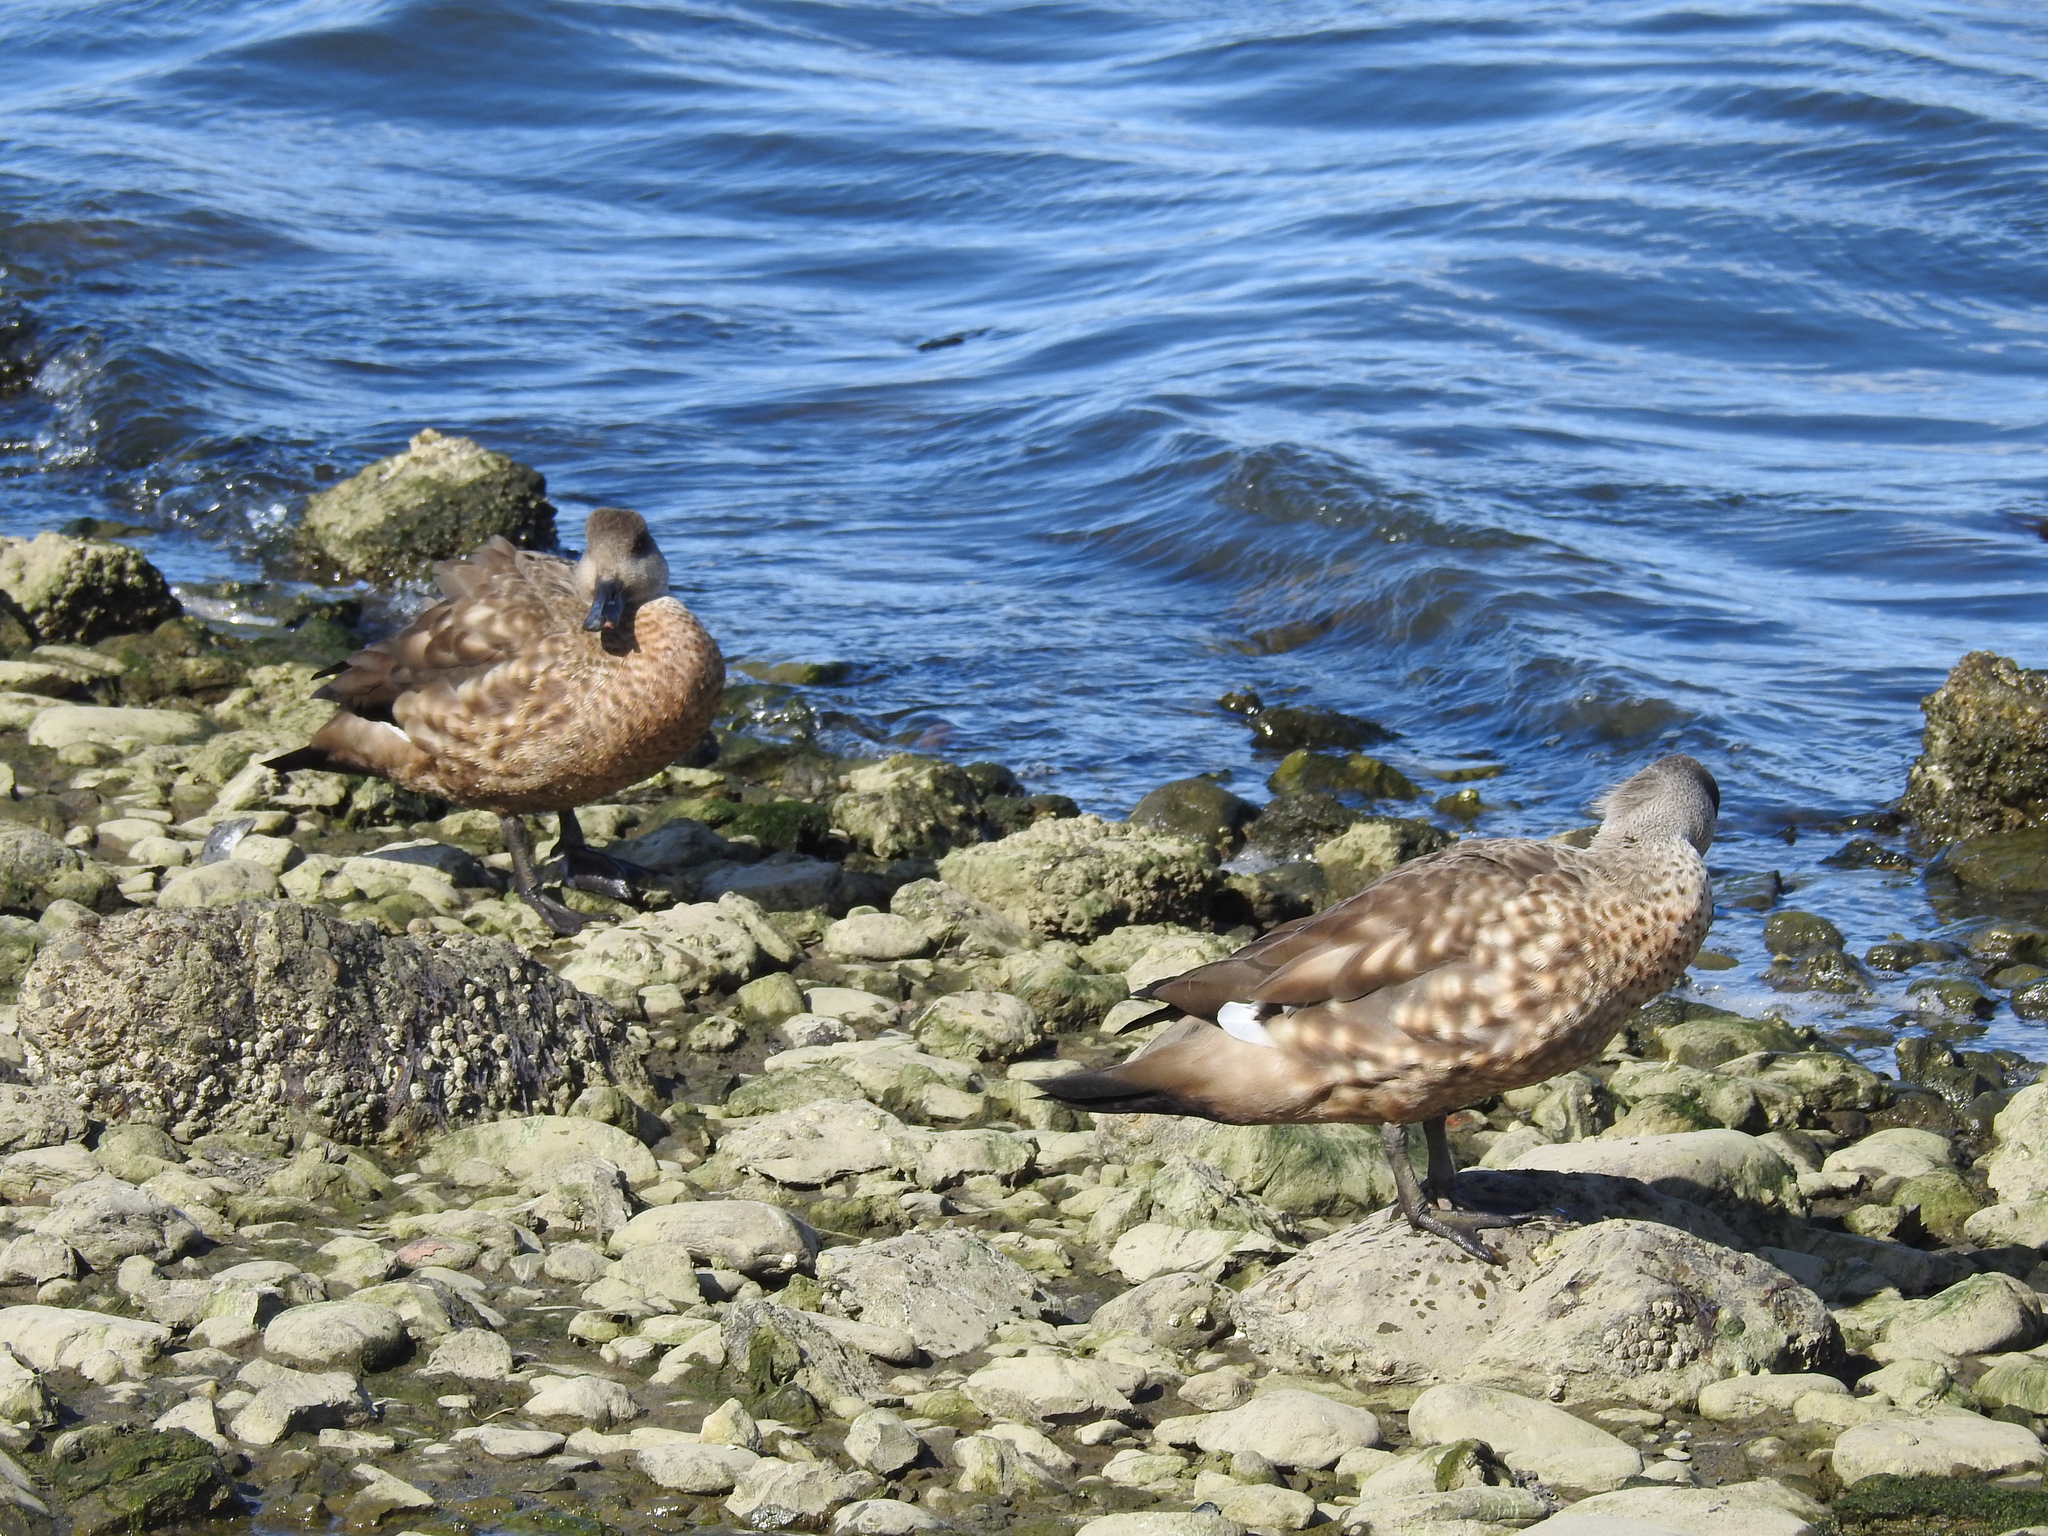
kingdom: Animalia
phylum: Chordata
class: Aves
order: Anseriformes
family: Anatidae
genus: Lophonetta
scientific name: Lophonetta specularioides
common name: Crested duck
